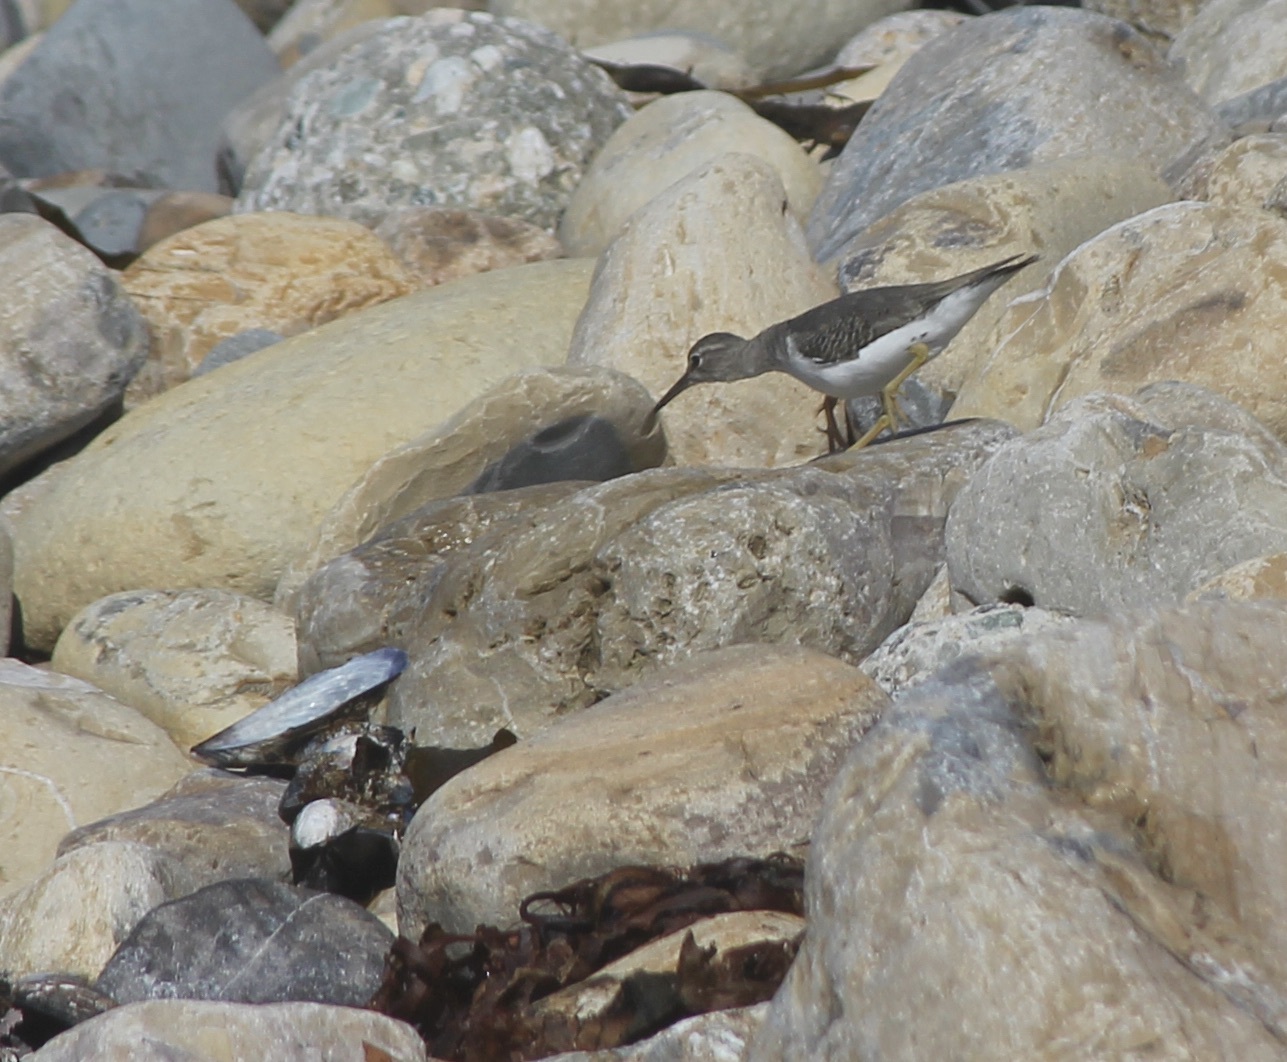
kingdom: Animalia
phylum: Chordata
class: Aves
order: Charadriiformes
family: Scolopacidae
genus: Actitis
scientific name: Actitis macularius
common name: Spotted sandpiper
